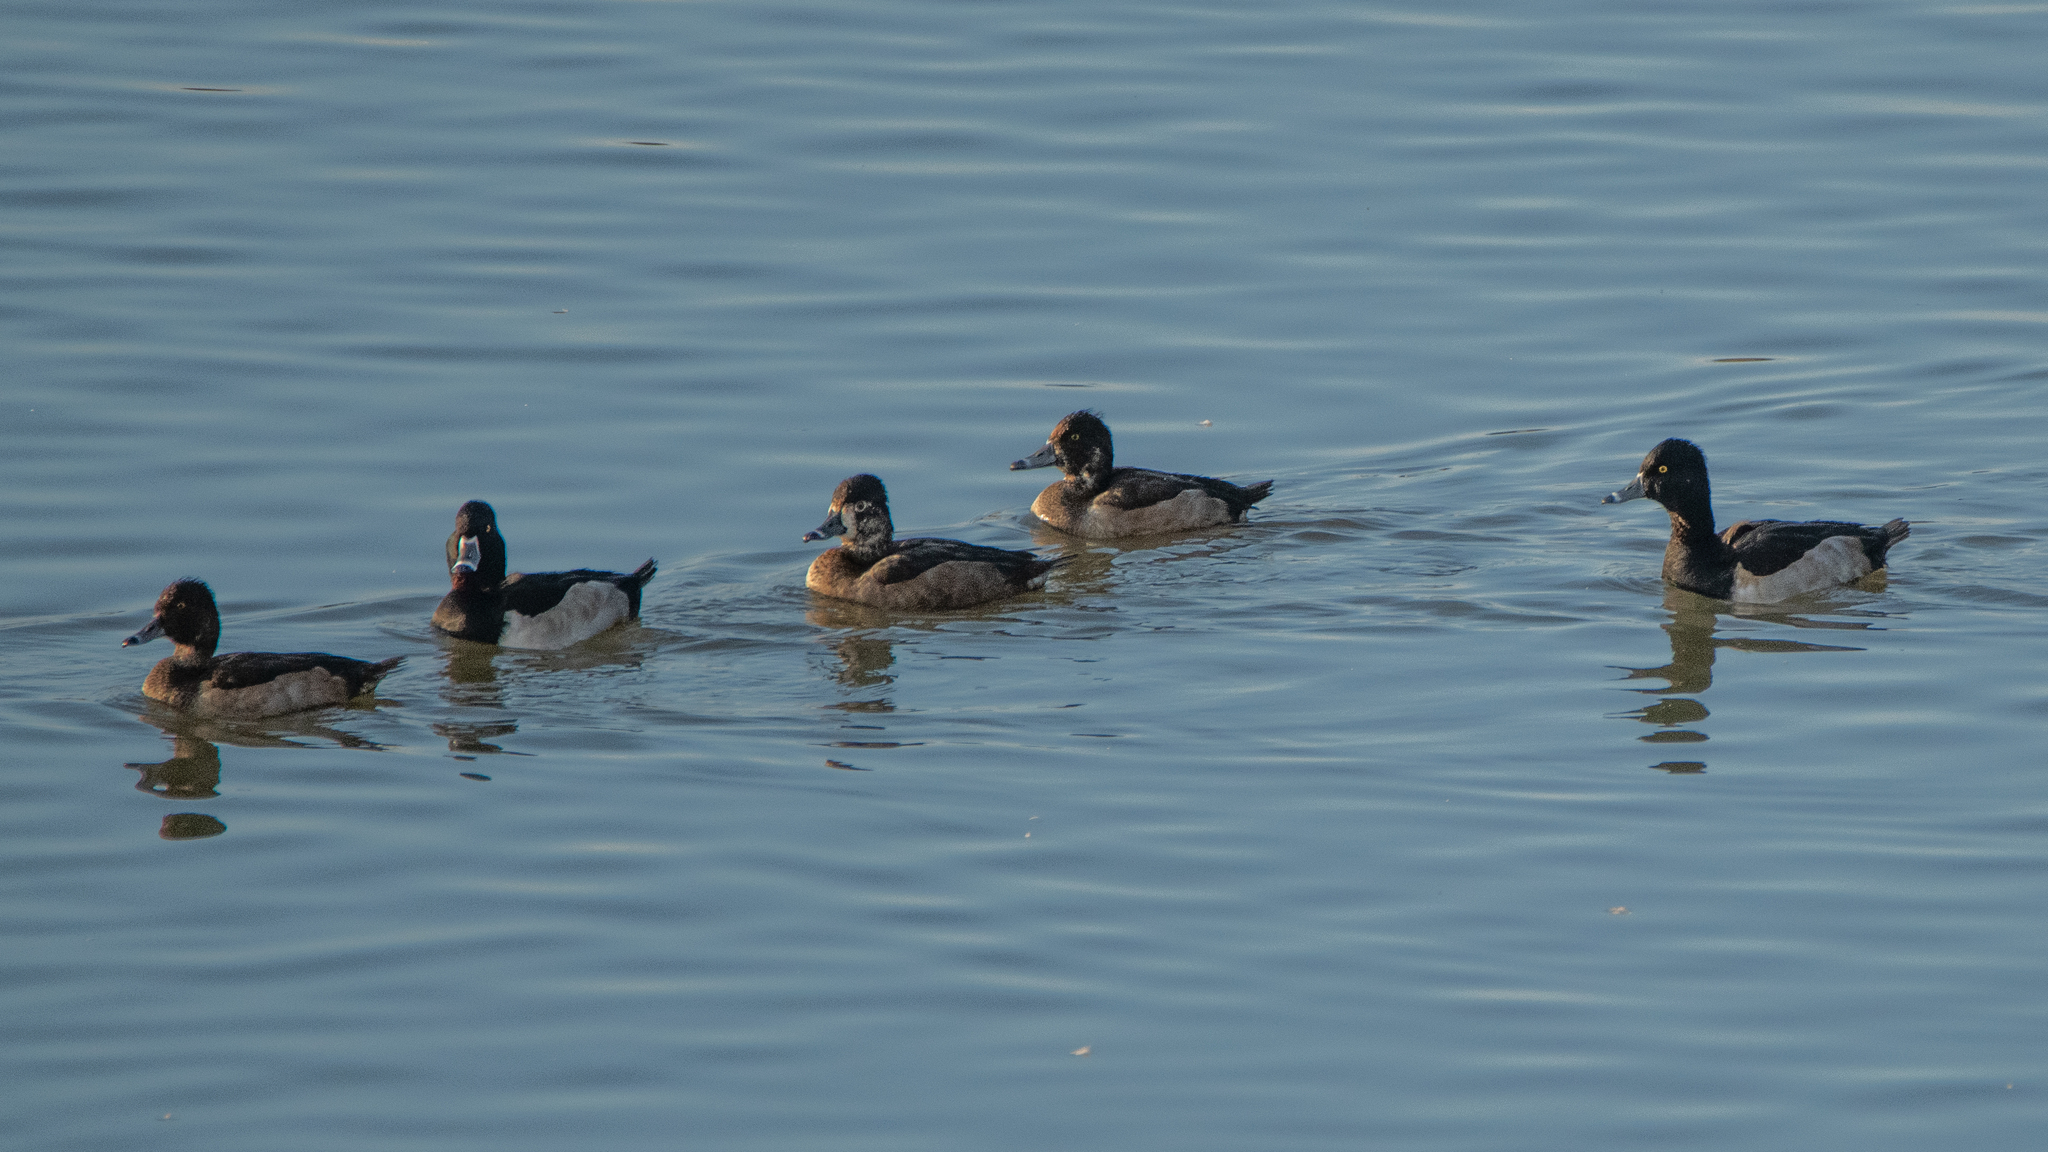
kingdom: Animalia
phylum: Chordata
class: Aves
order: Anseriformes
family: Anatidae
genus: Aythya
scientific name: Aythya collaris
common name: Ring-necked duck
